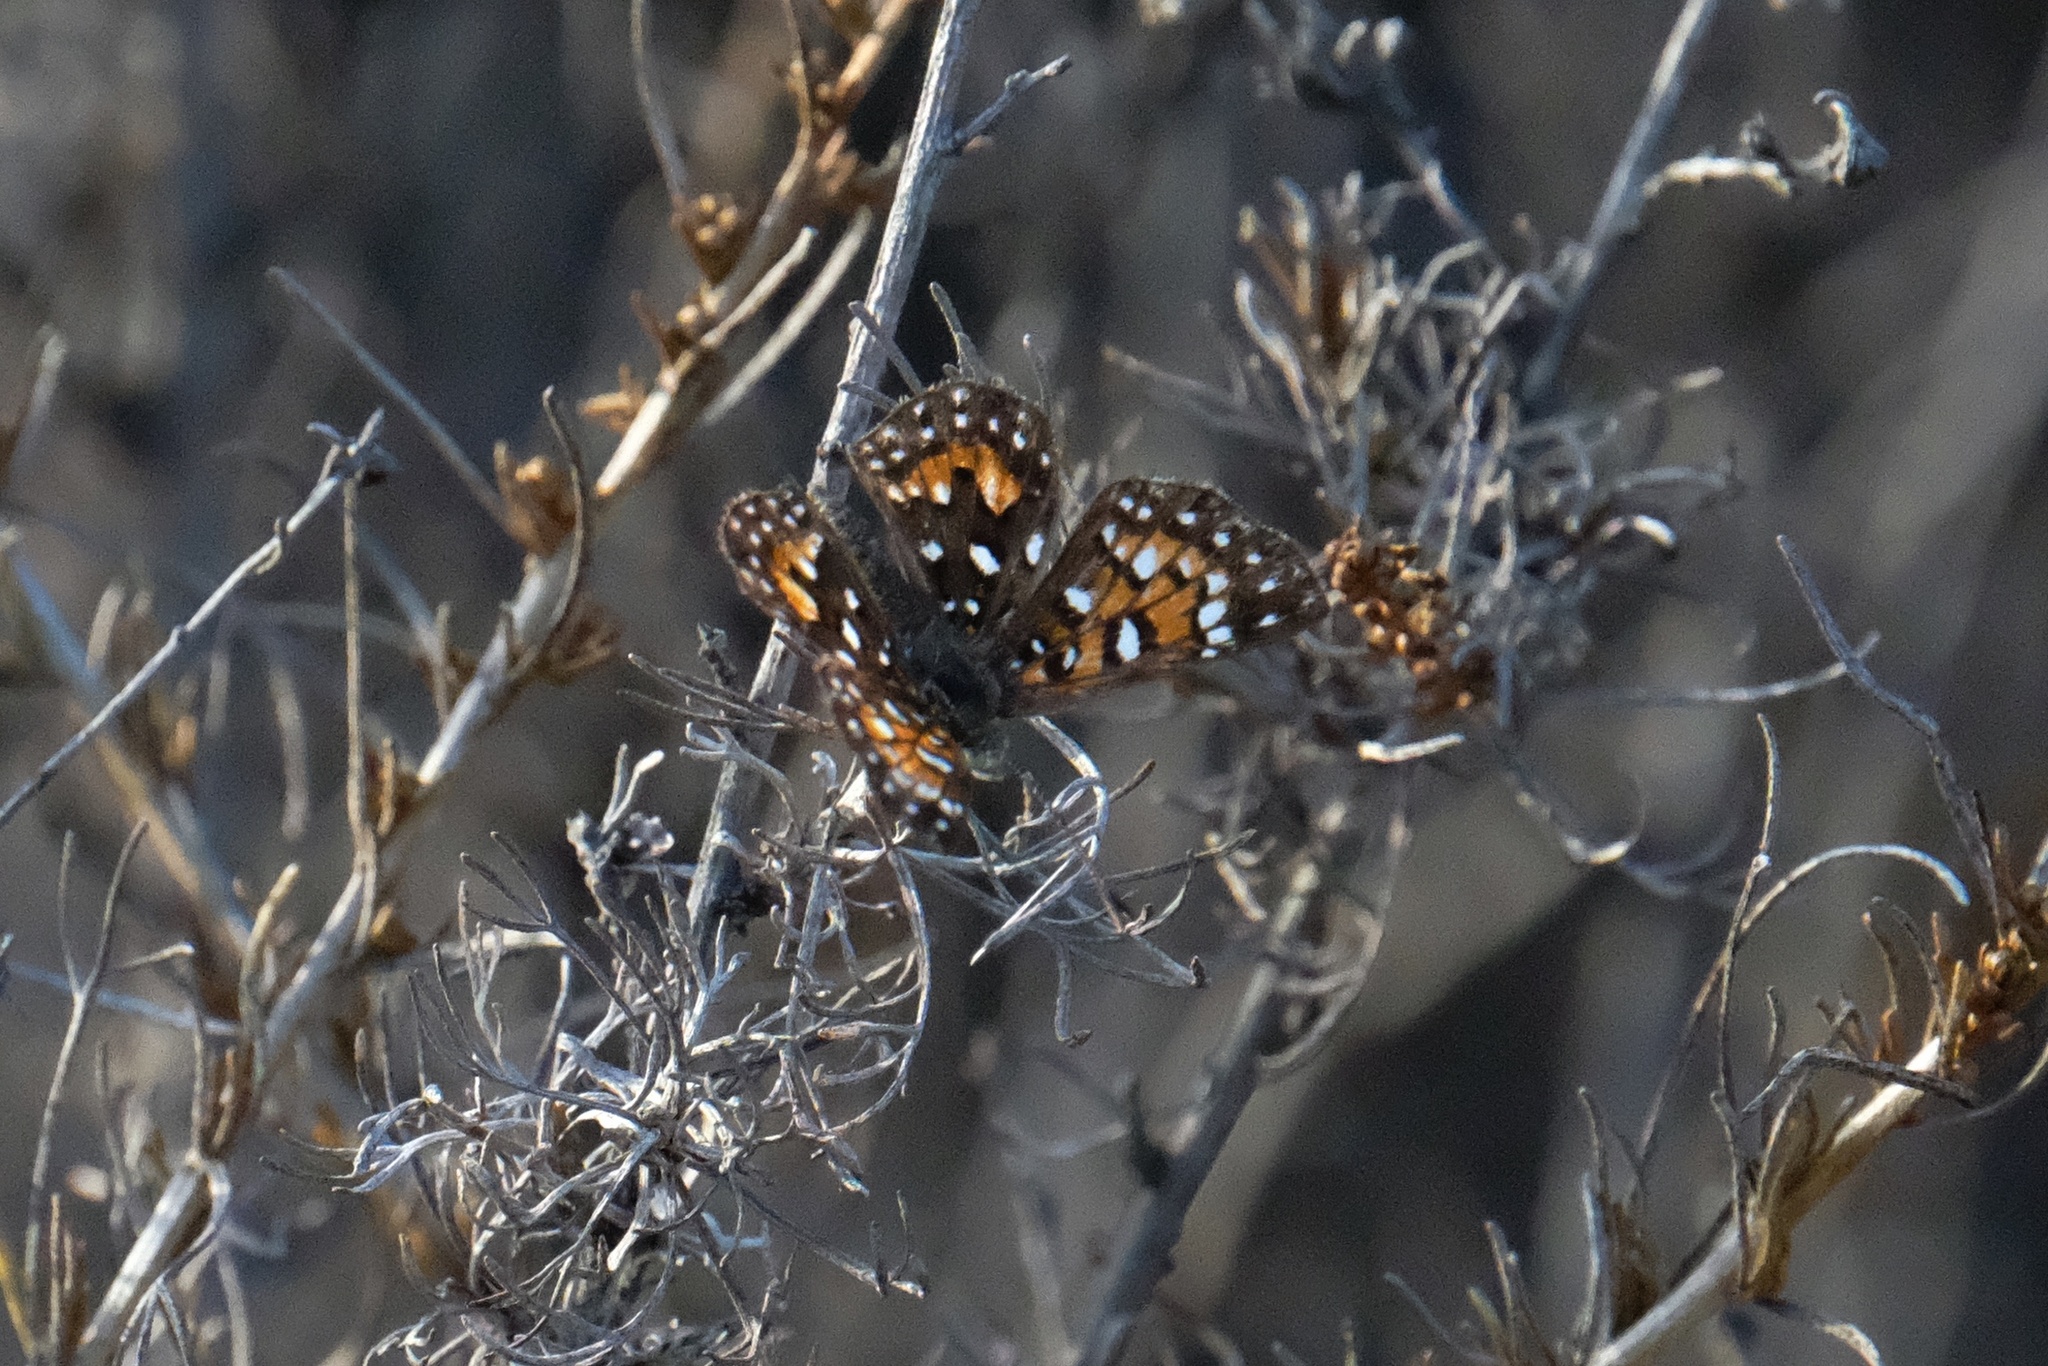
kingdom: Animalia
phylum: Arthropoda
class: Insecta
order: Lepidoptera
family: Riodinidae
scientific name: Riodinidae
